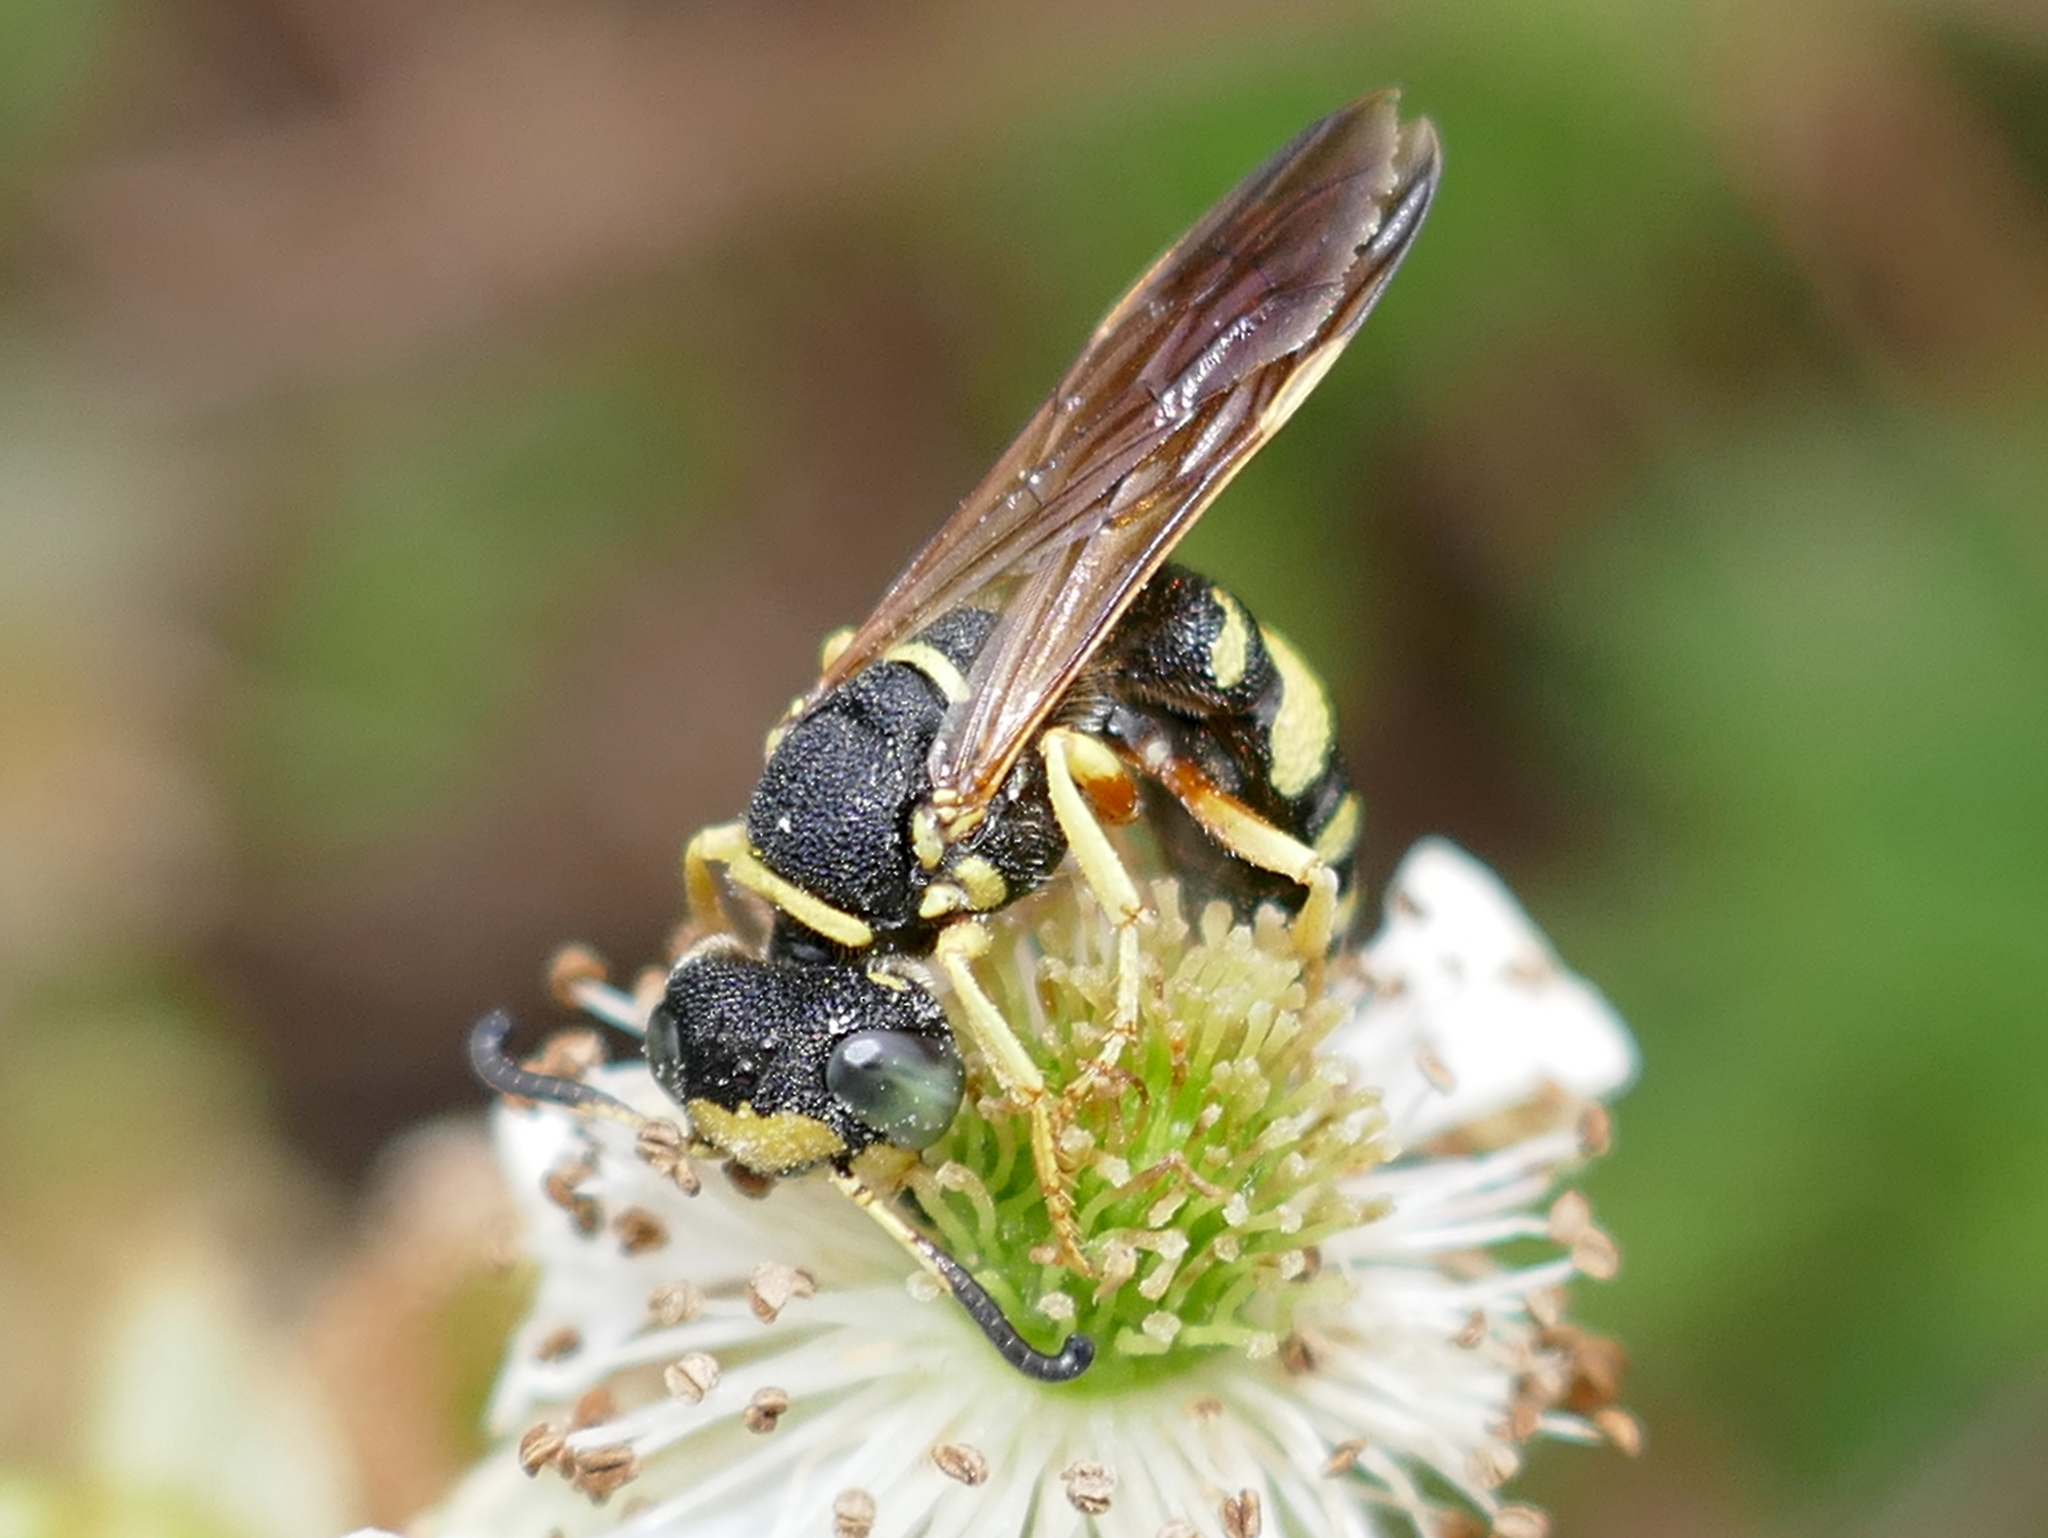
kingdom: Animalia
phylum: Arthropoda
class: Insecta
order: Hymenoptera
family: Crabronidae
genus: Philanthus
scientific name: Philanthus ventilabris
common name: Bee-killer wasp
